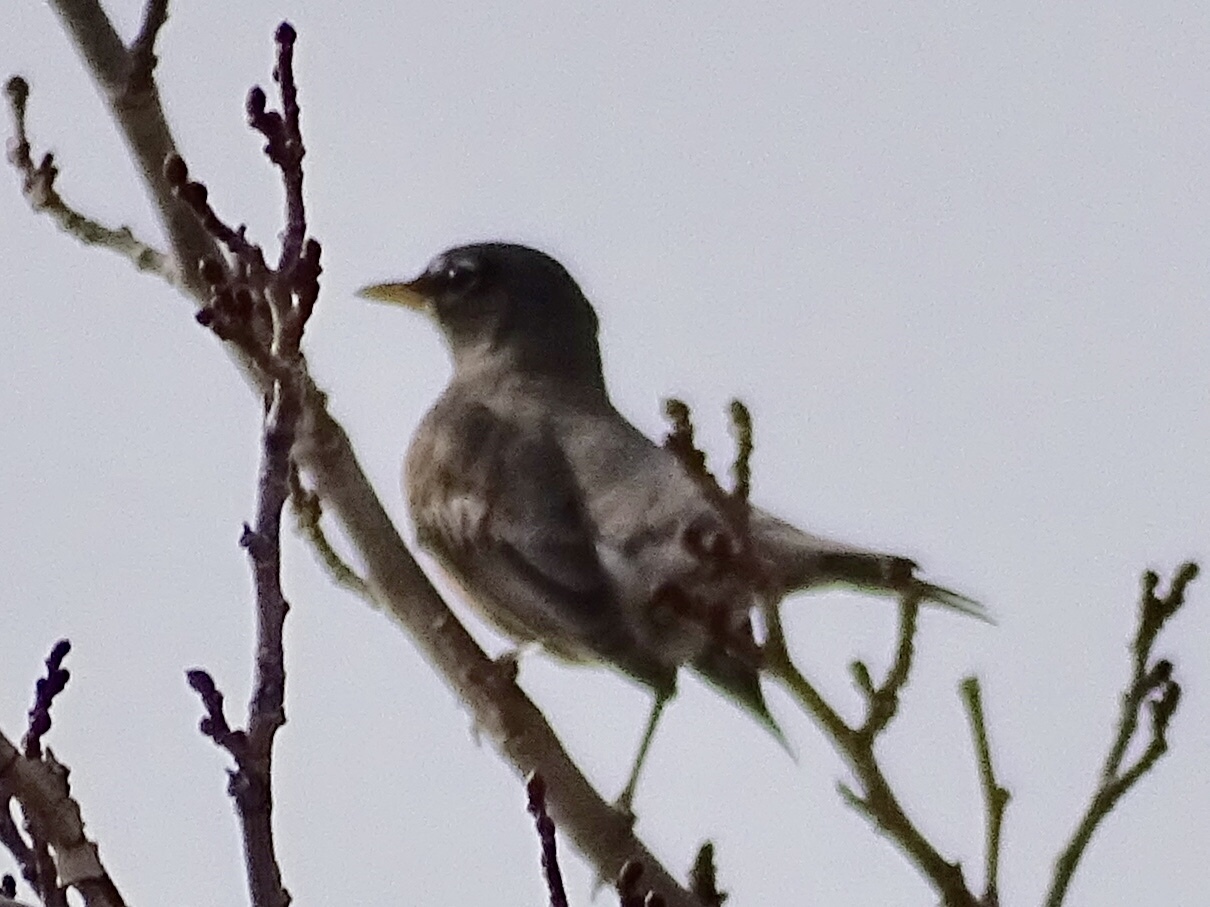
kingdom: Animalia
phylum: Chordata
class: Aves
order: Passeriformes
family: Turdidae
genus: Turdus
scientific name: Turdus migratorius
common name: American robin
